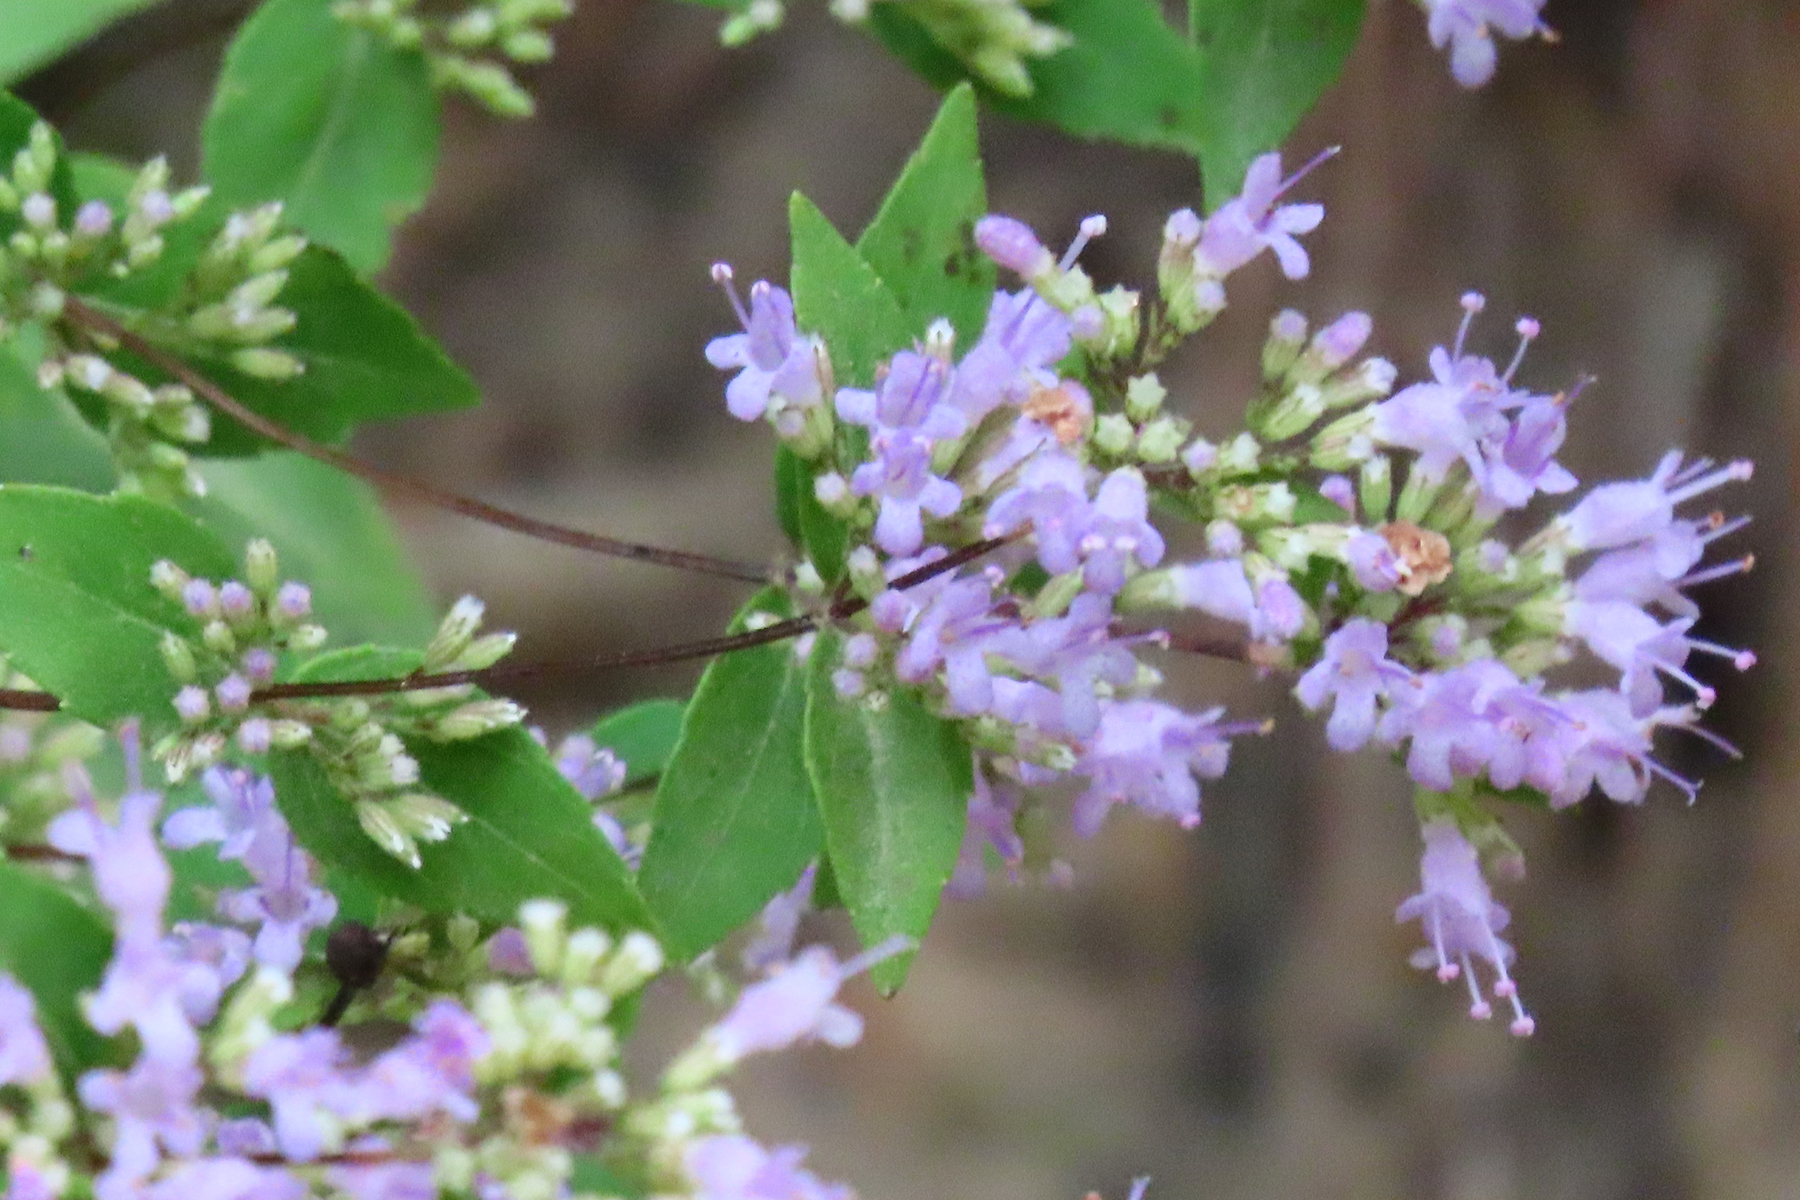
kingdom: Plantae
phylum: Tracheophyta
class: Magnoliopsida
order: Lamiales
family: Lamiaceae
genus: Cunila
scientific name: Cunila origanoides
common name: American dittany
